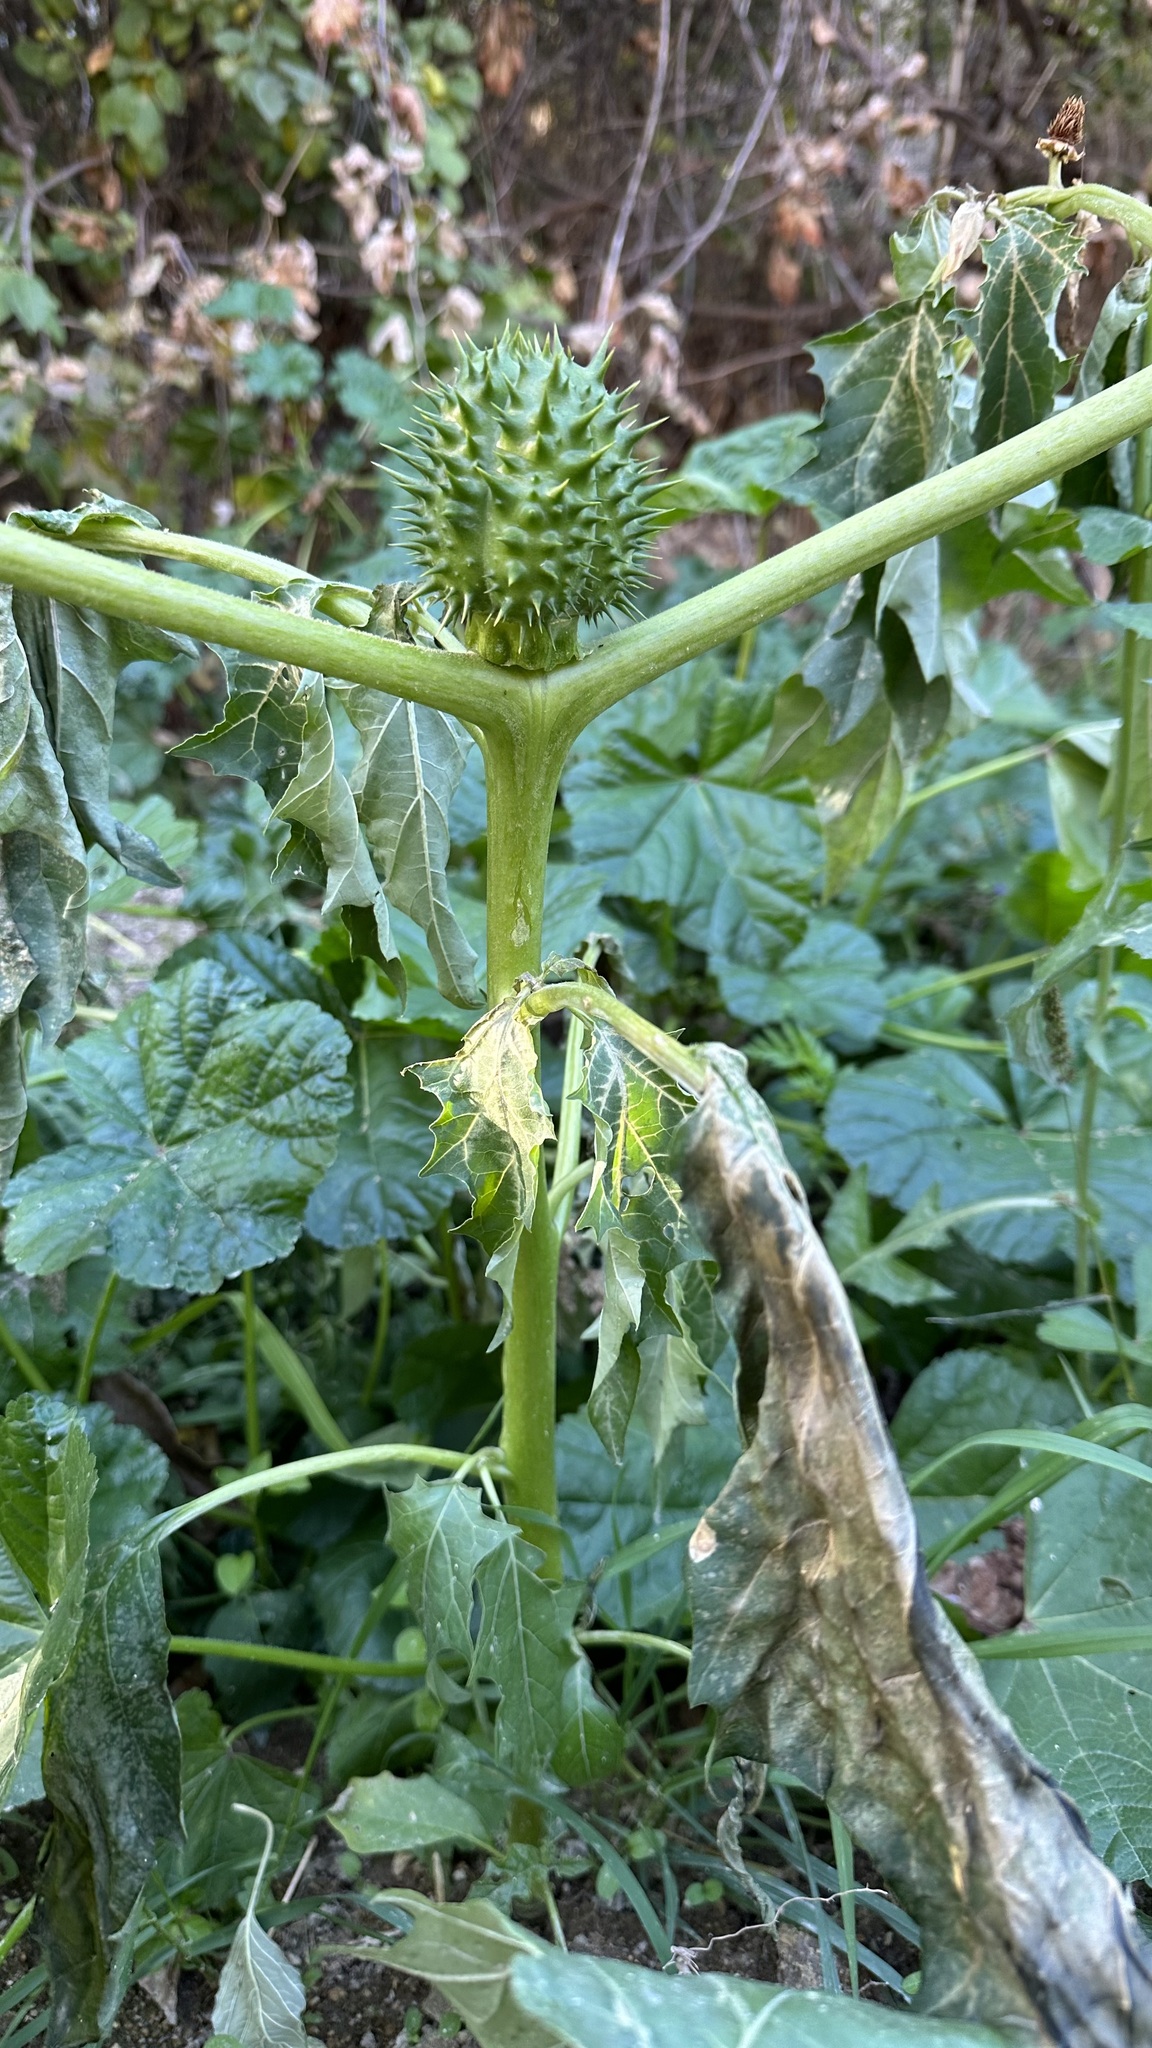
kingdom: Plantae
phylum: Tracheophyta
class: Magnoliopsida
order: Solanales
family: Solanaceae
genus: Datura
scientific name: Datura stramonium
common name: Thorn-apple
